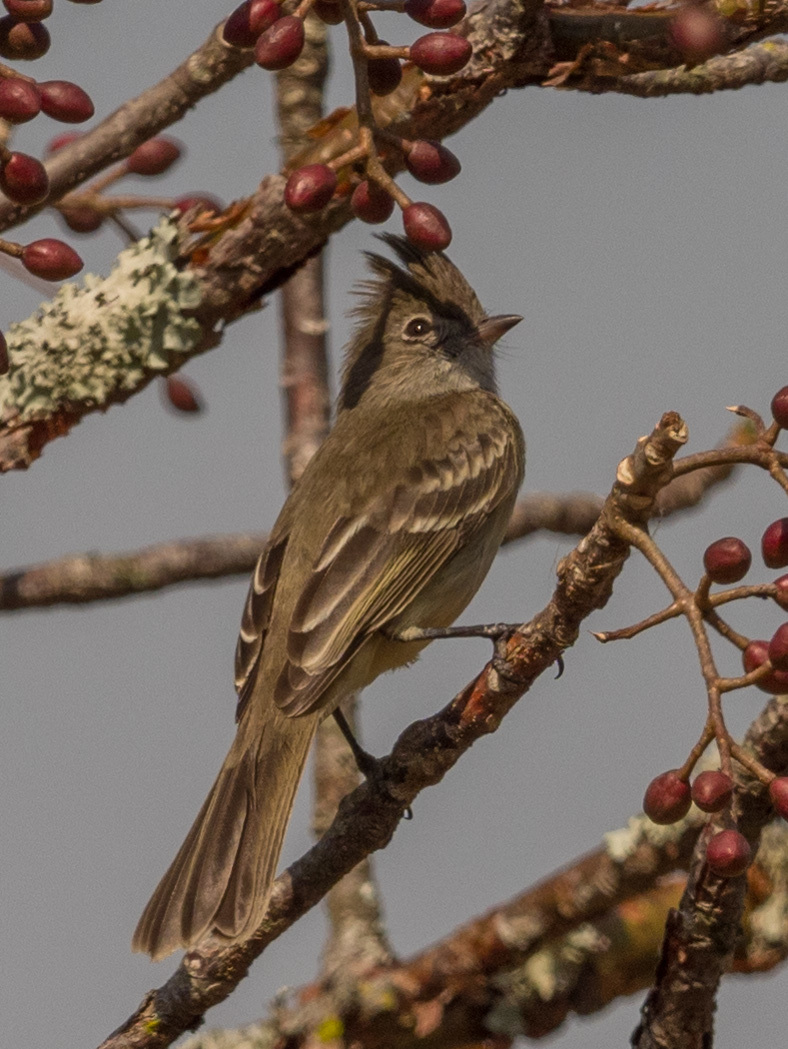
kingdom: Animalia
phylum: Chordata
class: Aves
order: Passeriformes
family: Tyrannidae
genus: Elaenia
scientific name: Elaenia flavogaster
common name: Yellow-bellied elaenia
